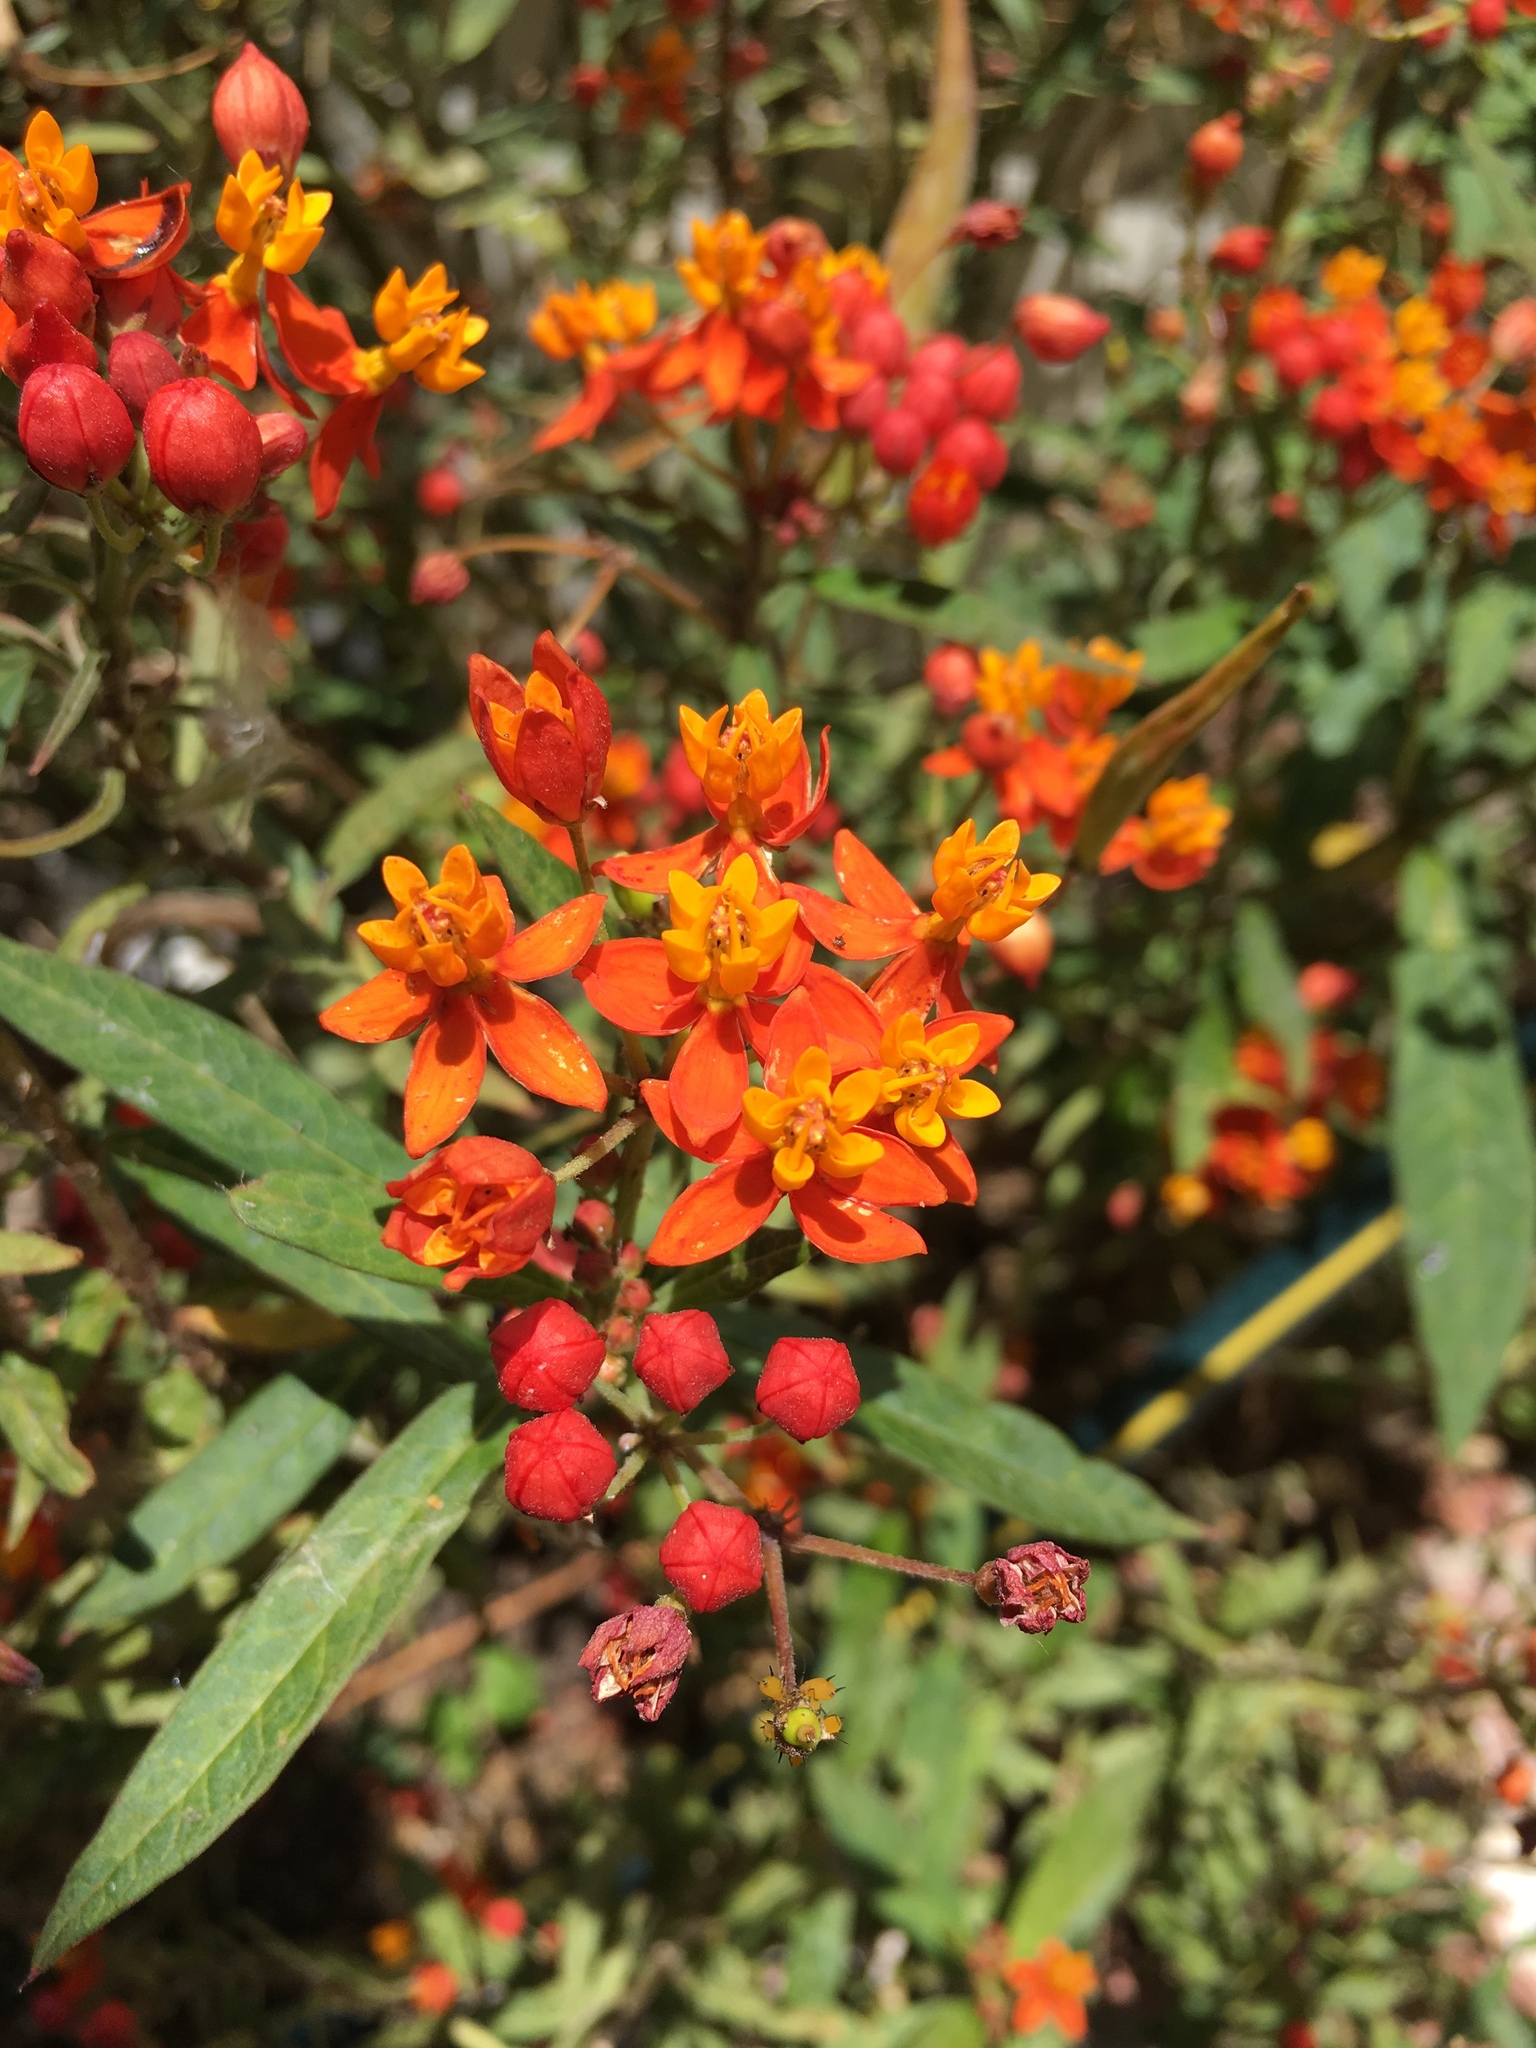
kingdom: Plantae
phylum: Tracheophyta
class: Magnoliopsida
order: Gentianales
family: Apocynaceae
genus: Asclepias
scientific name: Asclepias curassavica
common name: Bloodflower
